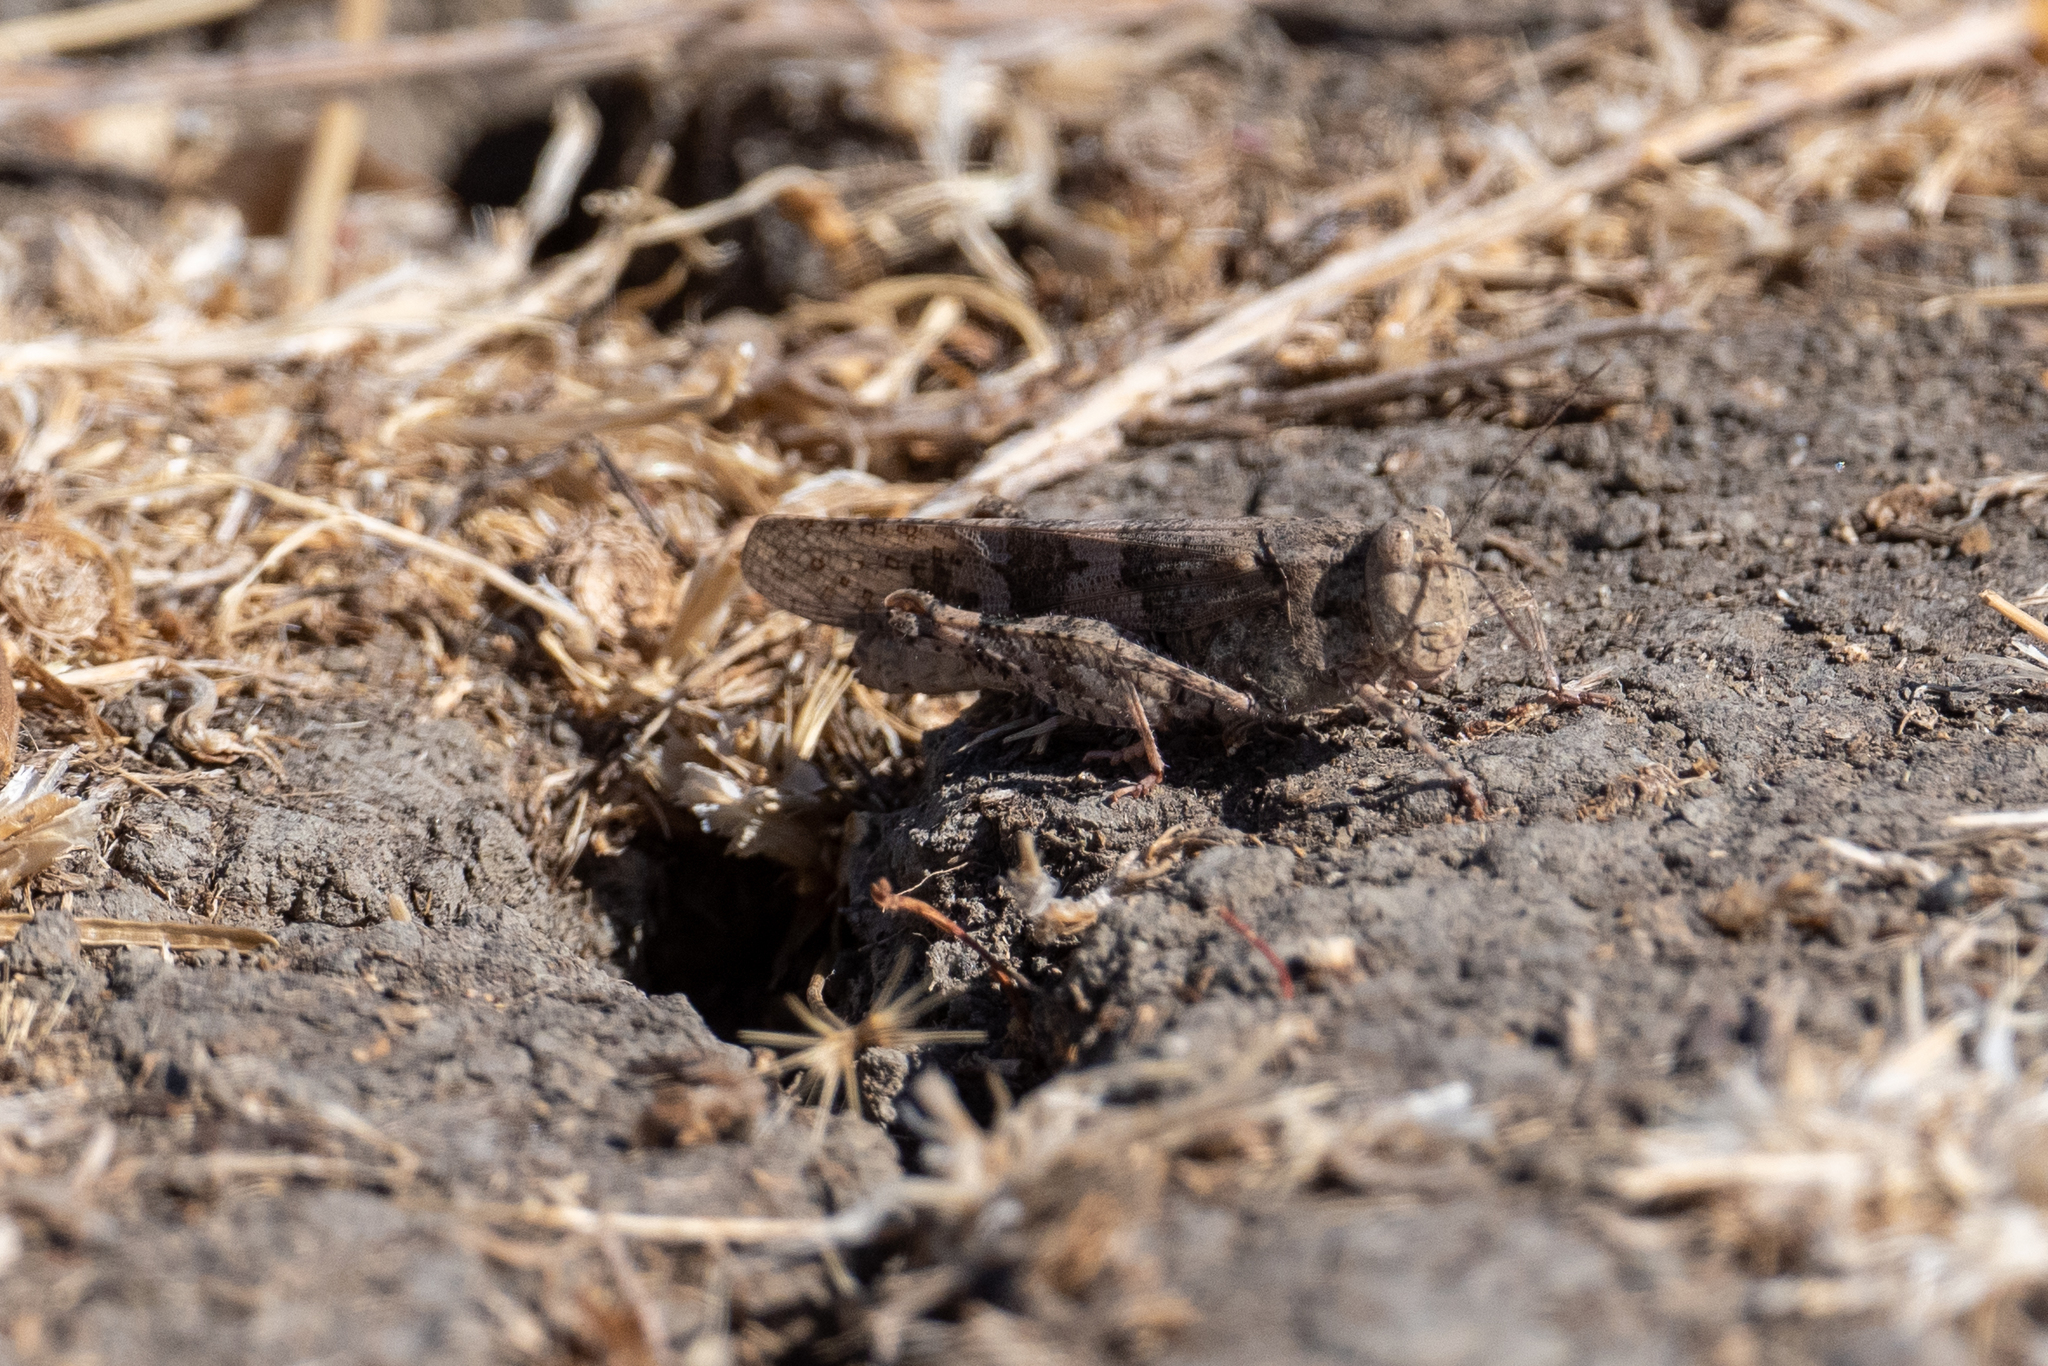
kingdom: Animalia
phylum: Arthropoda
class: Insecta
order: Orthoptera
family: Acrididae
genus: Trimerotropis
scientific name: Trimerotropis pallidipennis
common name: Pallid-winged grasshopper
